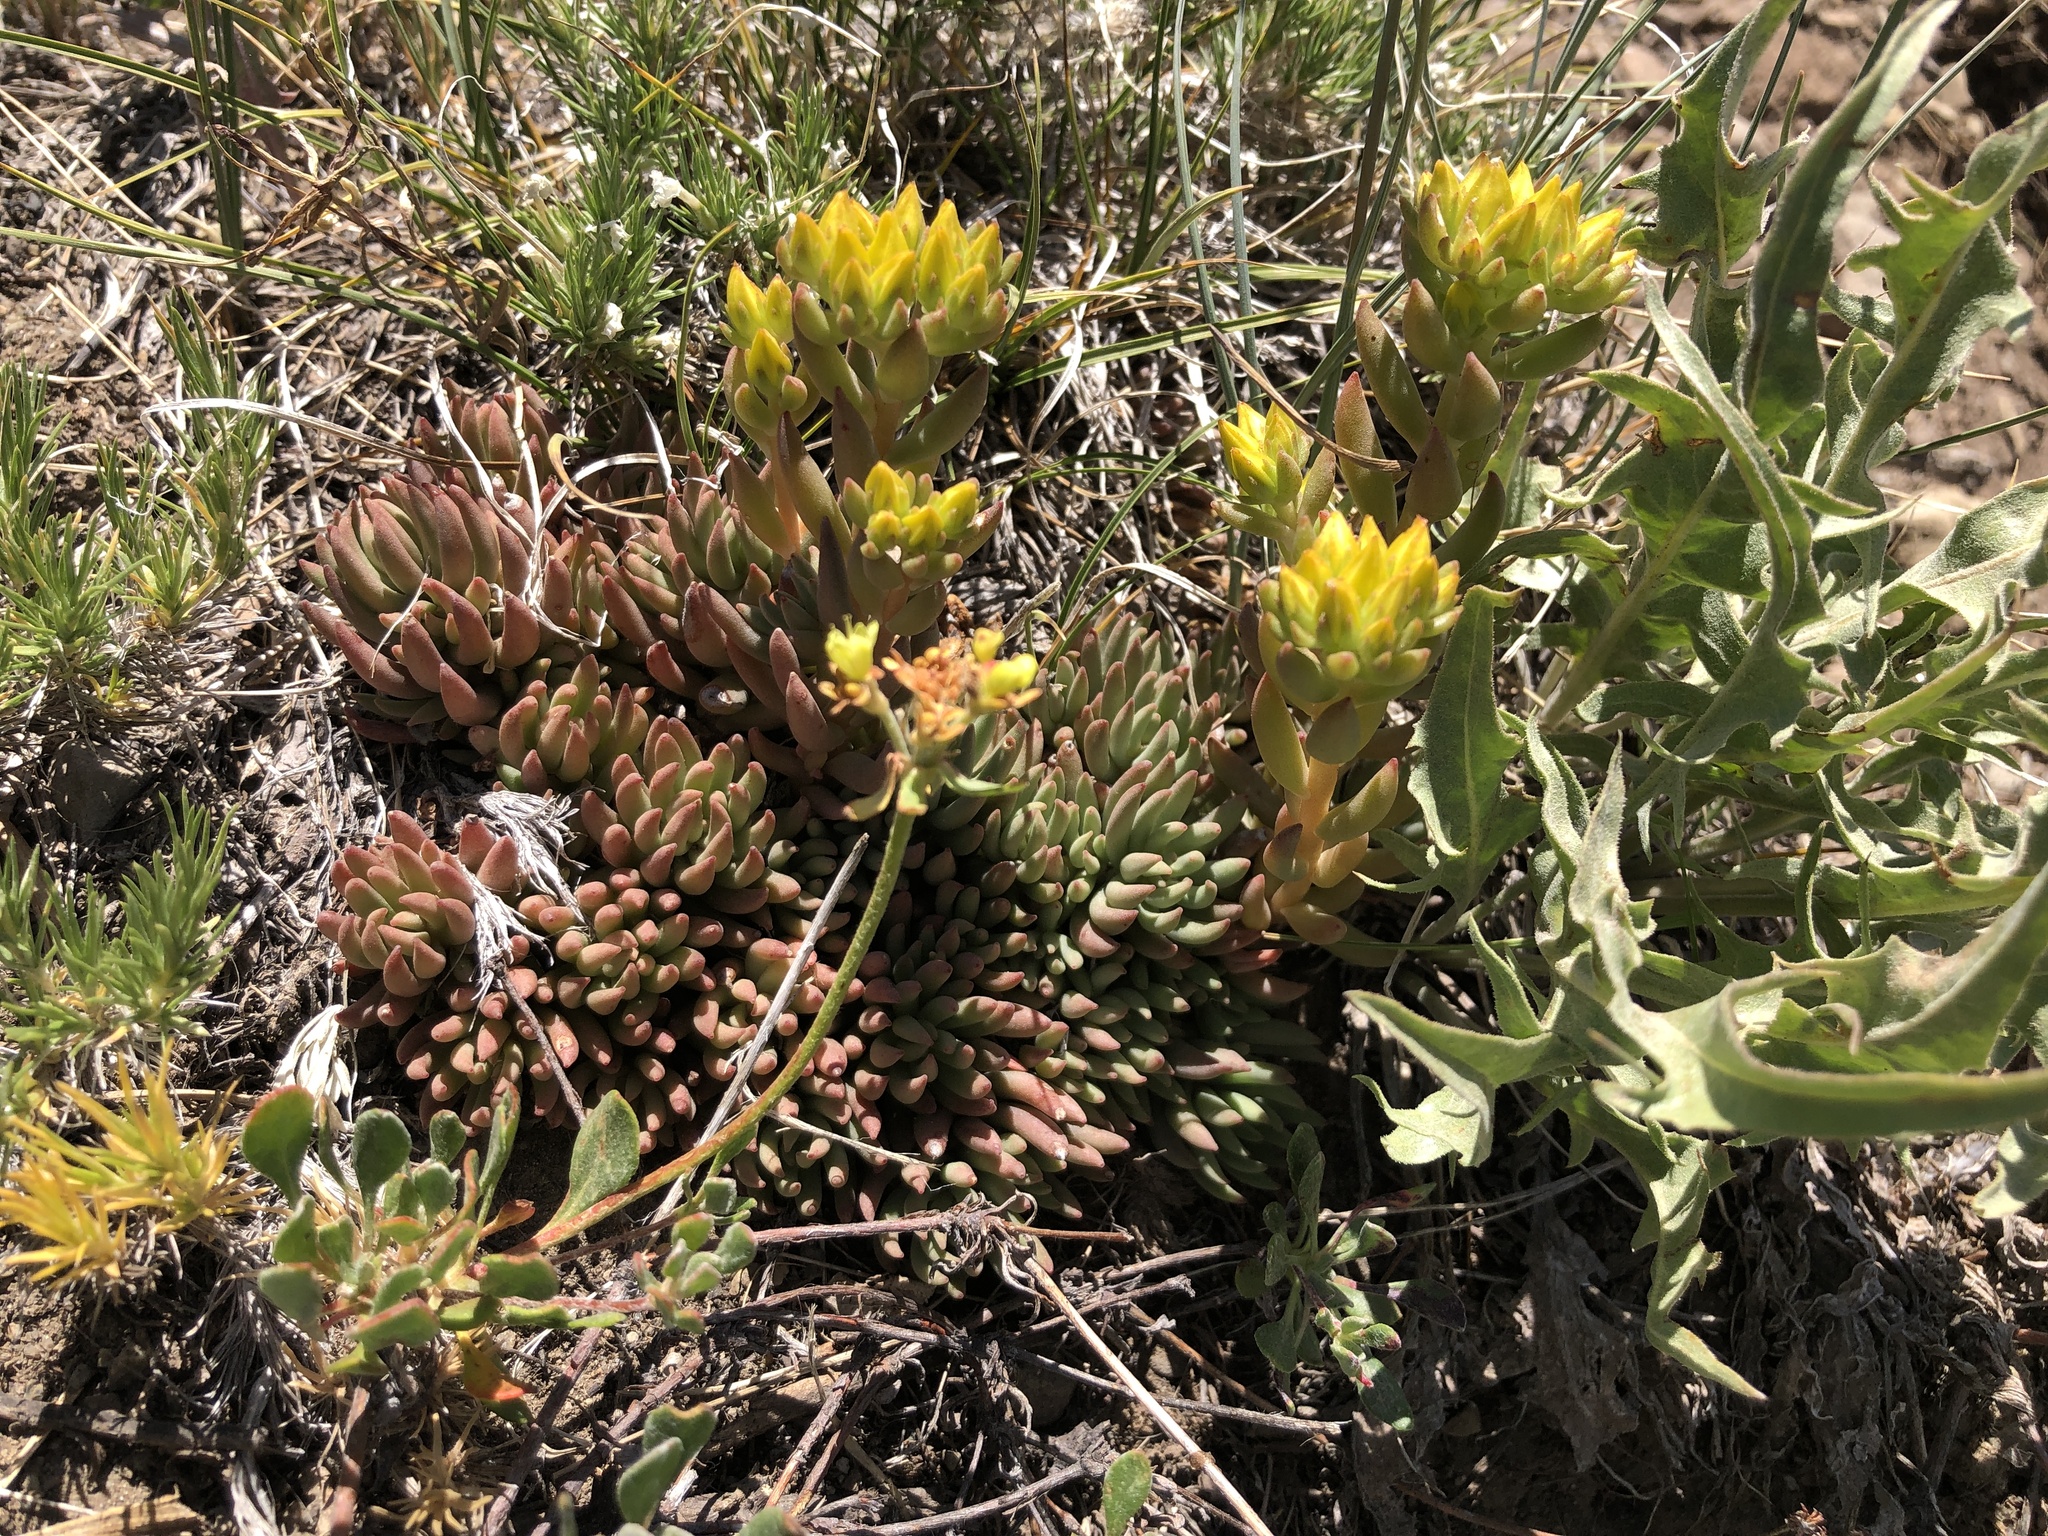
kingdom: Plantae
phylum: Tracheophyta
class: Magnoliopsida
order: Saxifragales
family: Crassulaceae
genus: Sedum
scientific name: Sedum lanceolatum
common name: Common stonecrop
